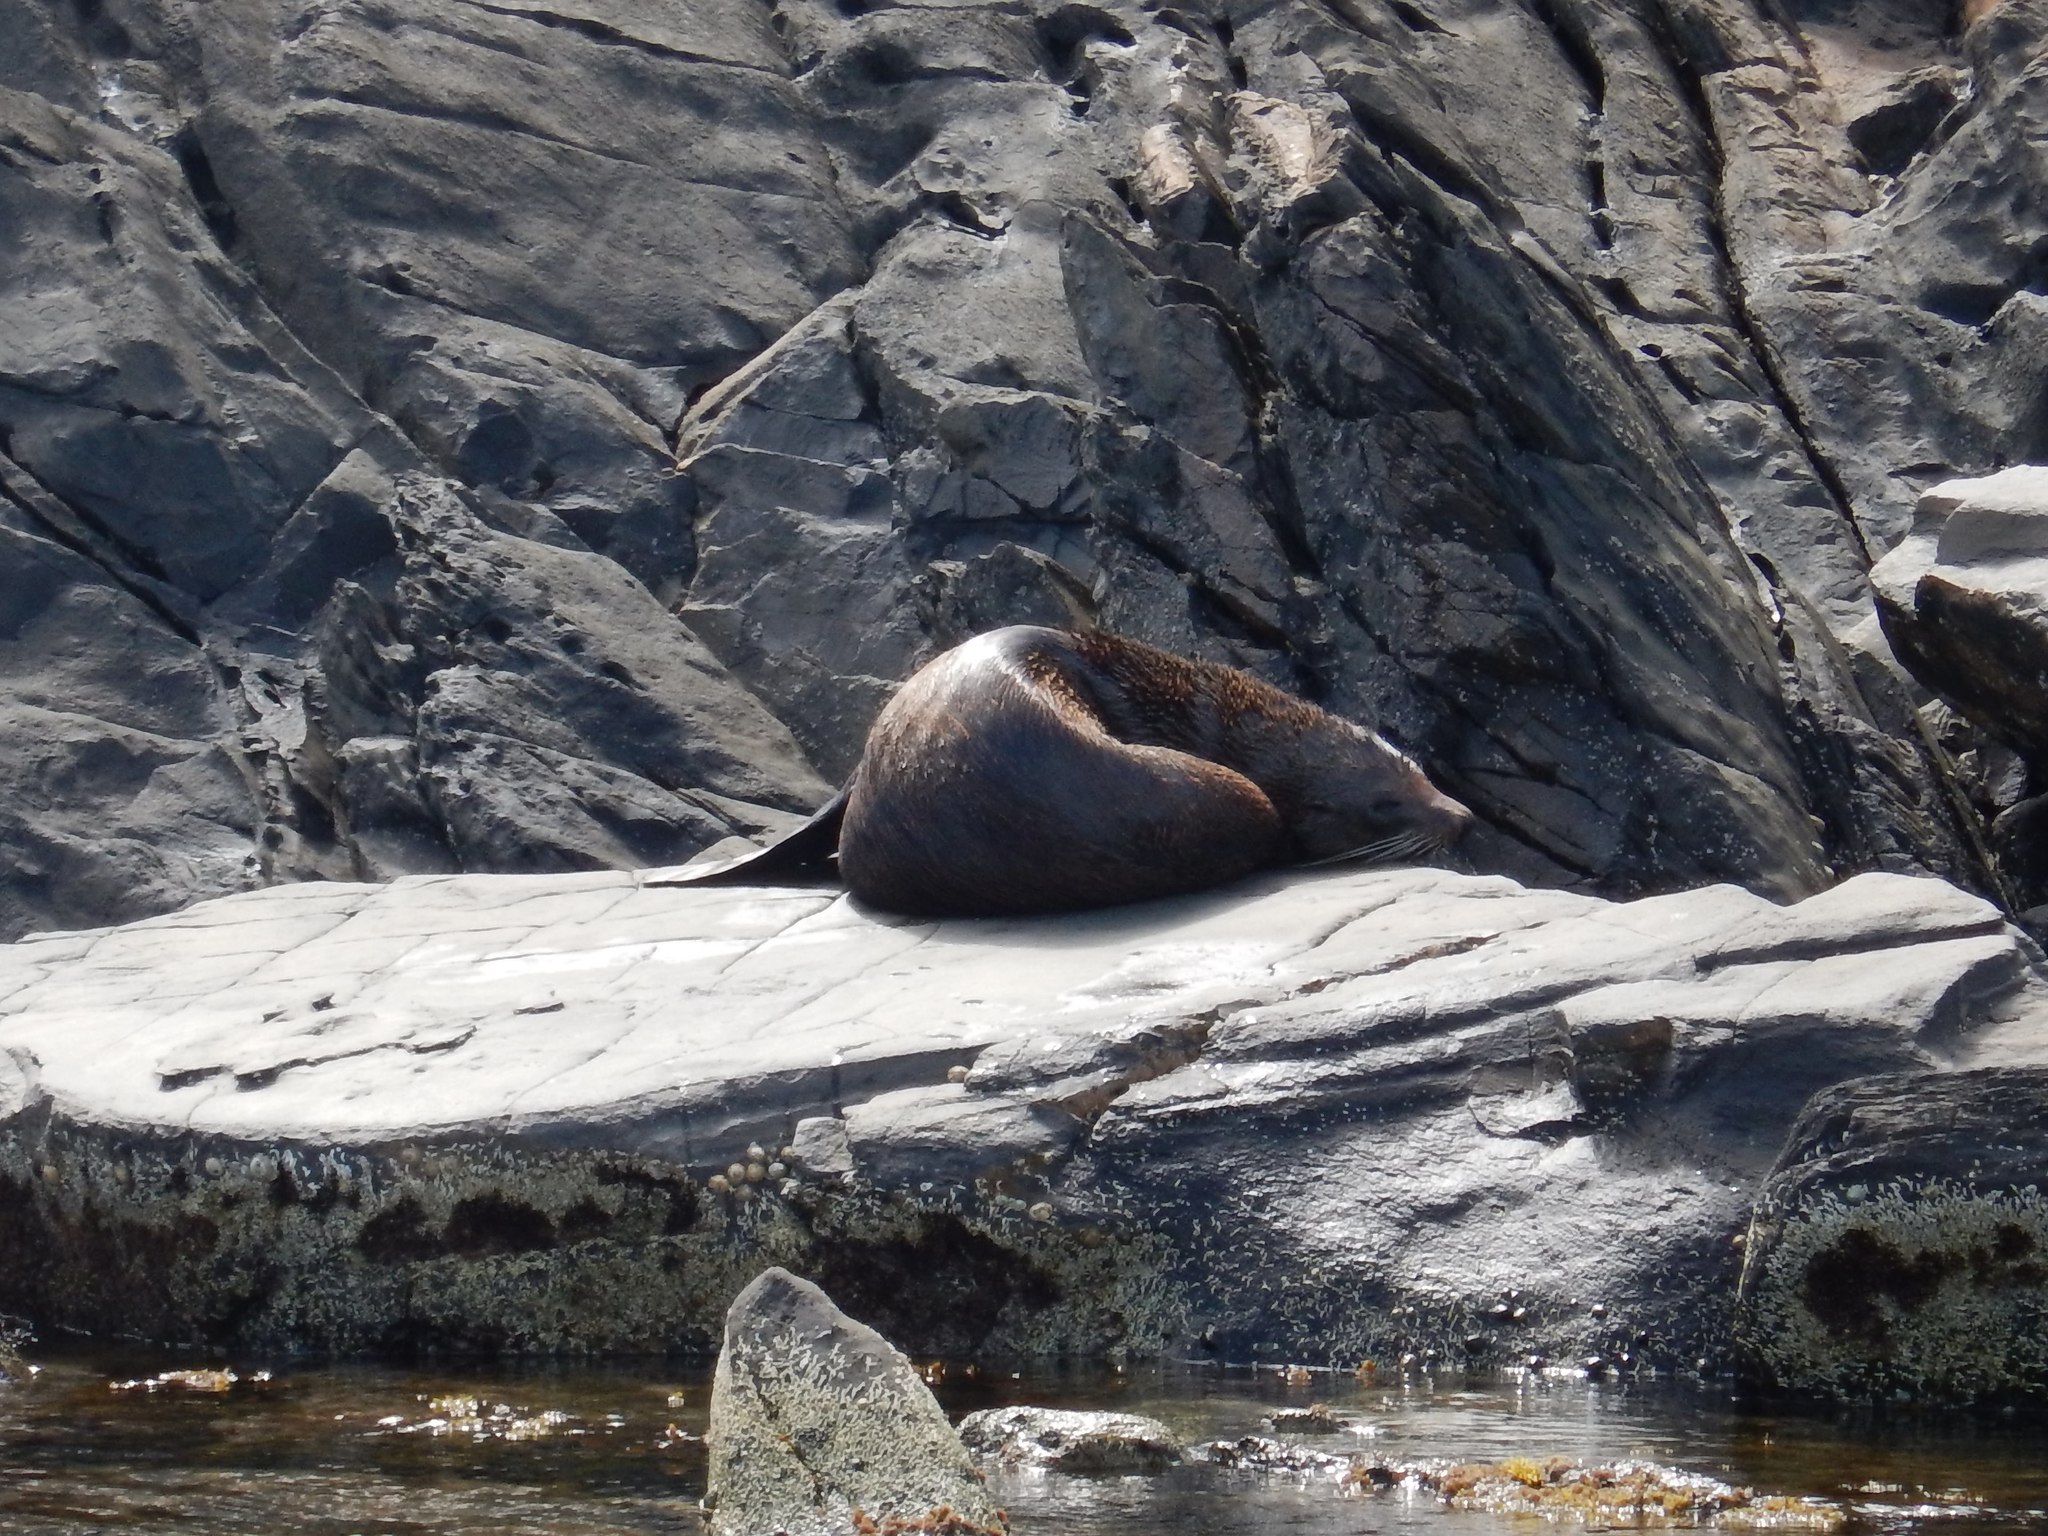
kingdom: Animalia
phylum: Chordata
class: Mammalia
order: Carnivora
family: Otariidae
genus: Arctocephalus
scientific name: Arctocephalus forsteri
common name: New zealand fur seal
